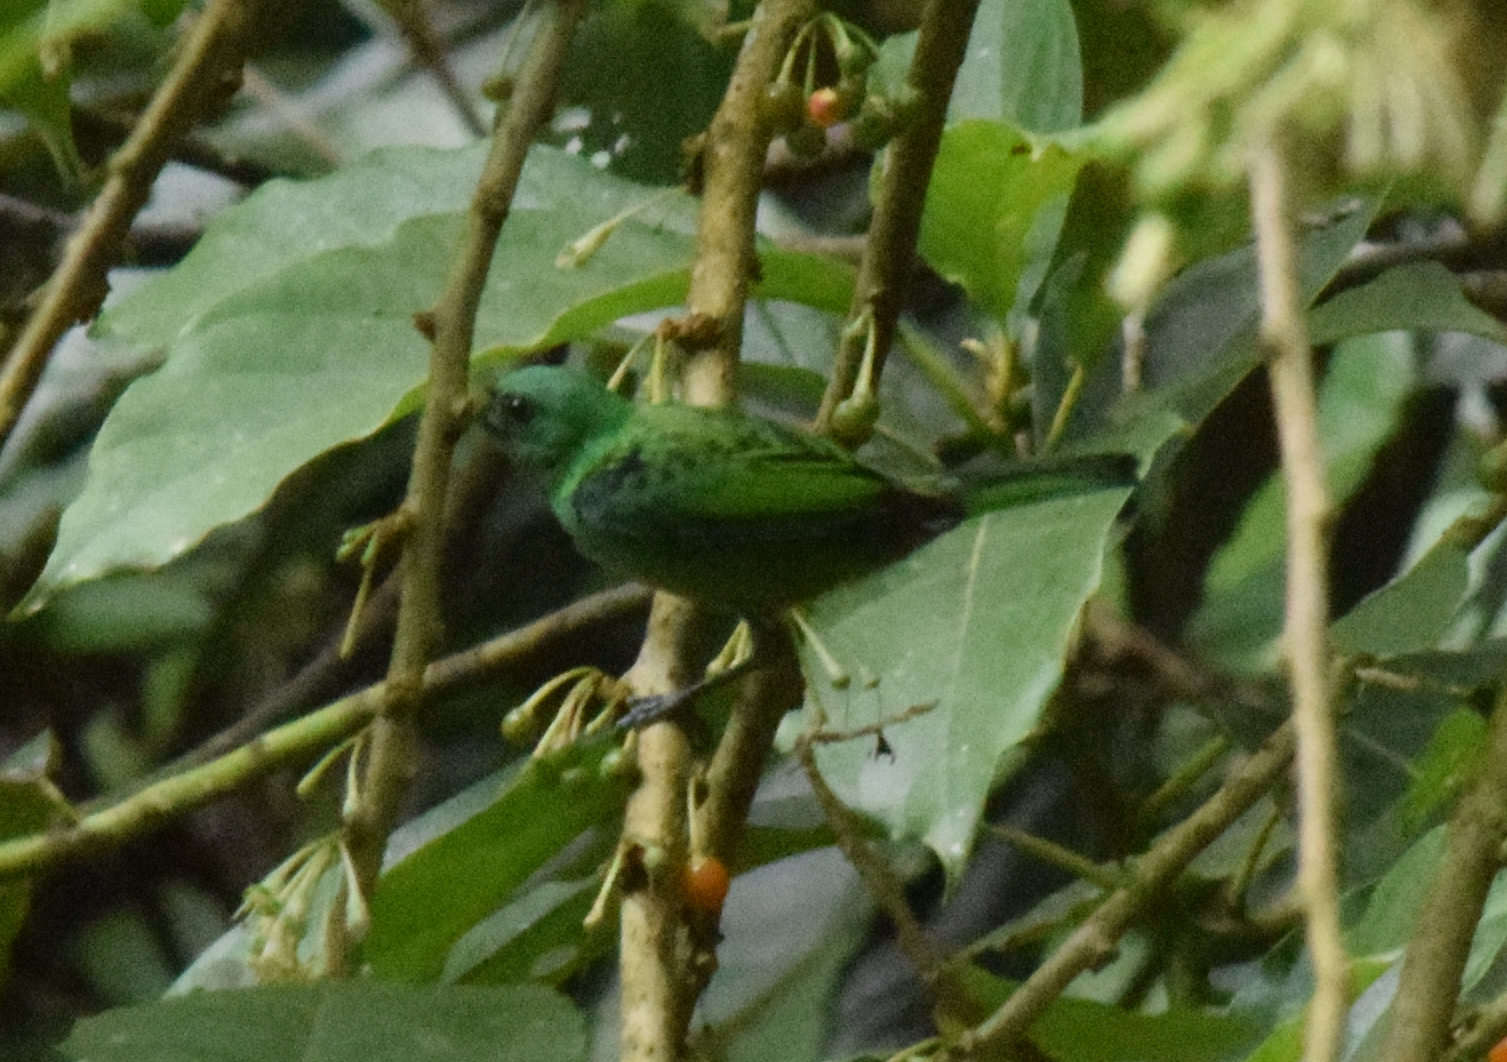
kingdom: Animalia
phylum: Chordata
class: Aves
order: Passeriformes
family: Thraupidae
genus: Tangara
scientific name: Tangara seledon
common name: Green-headed tanager
